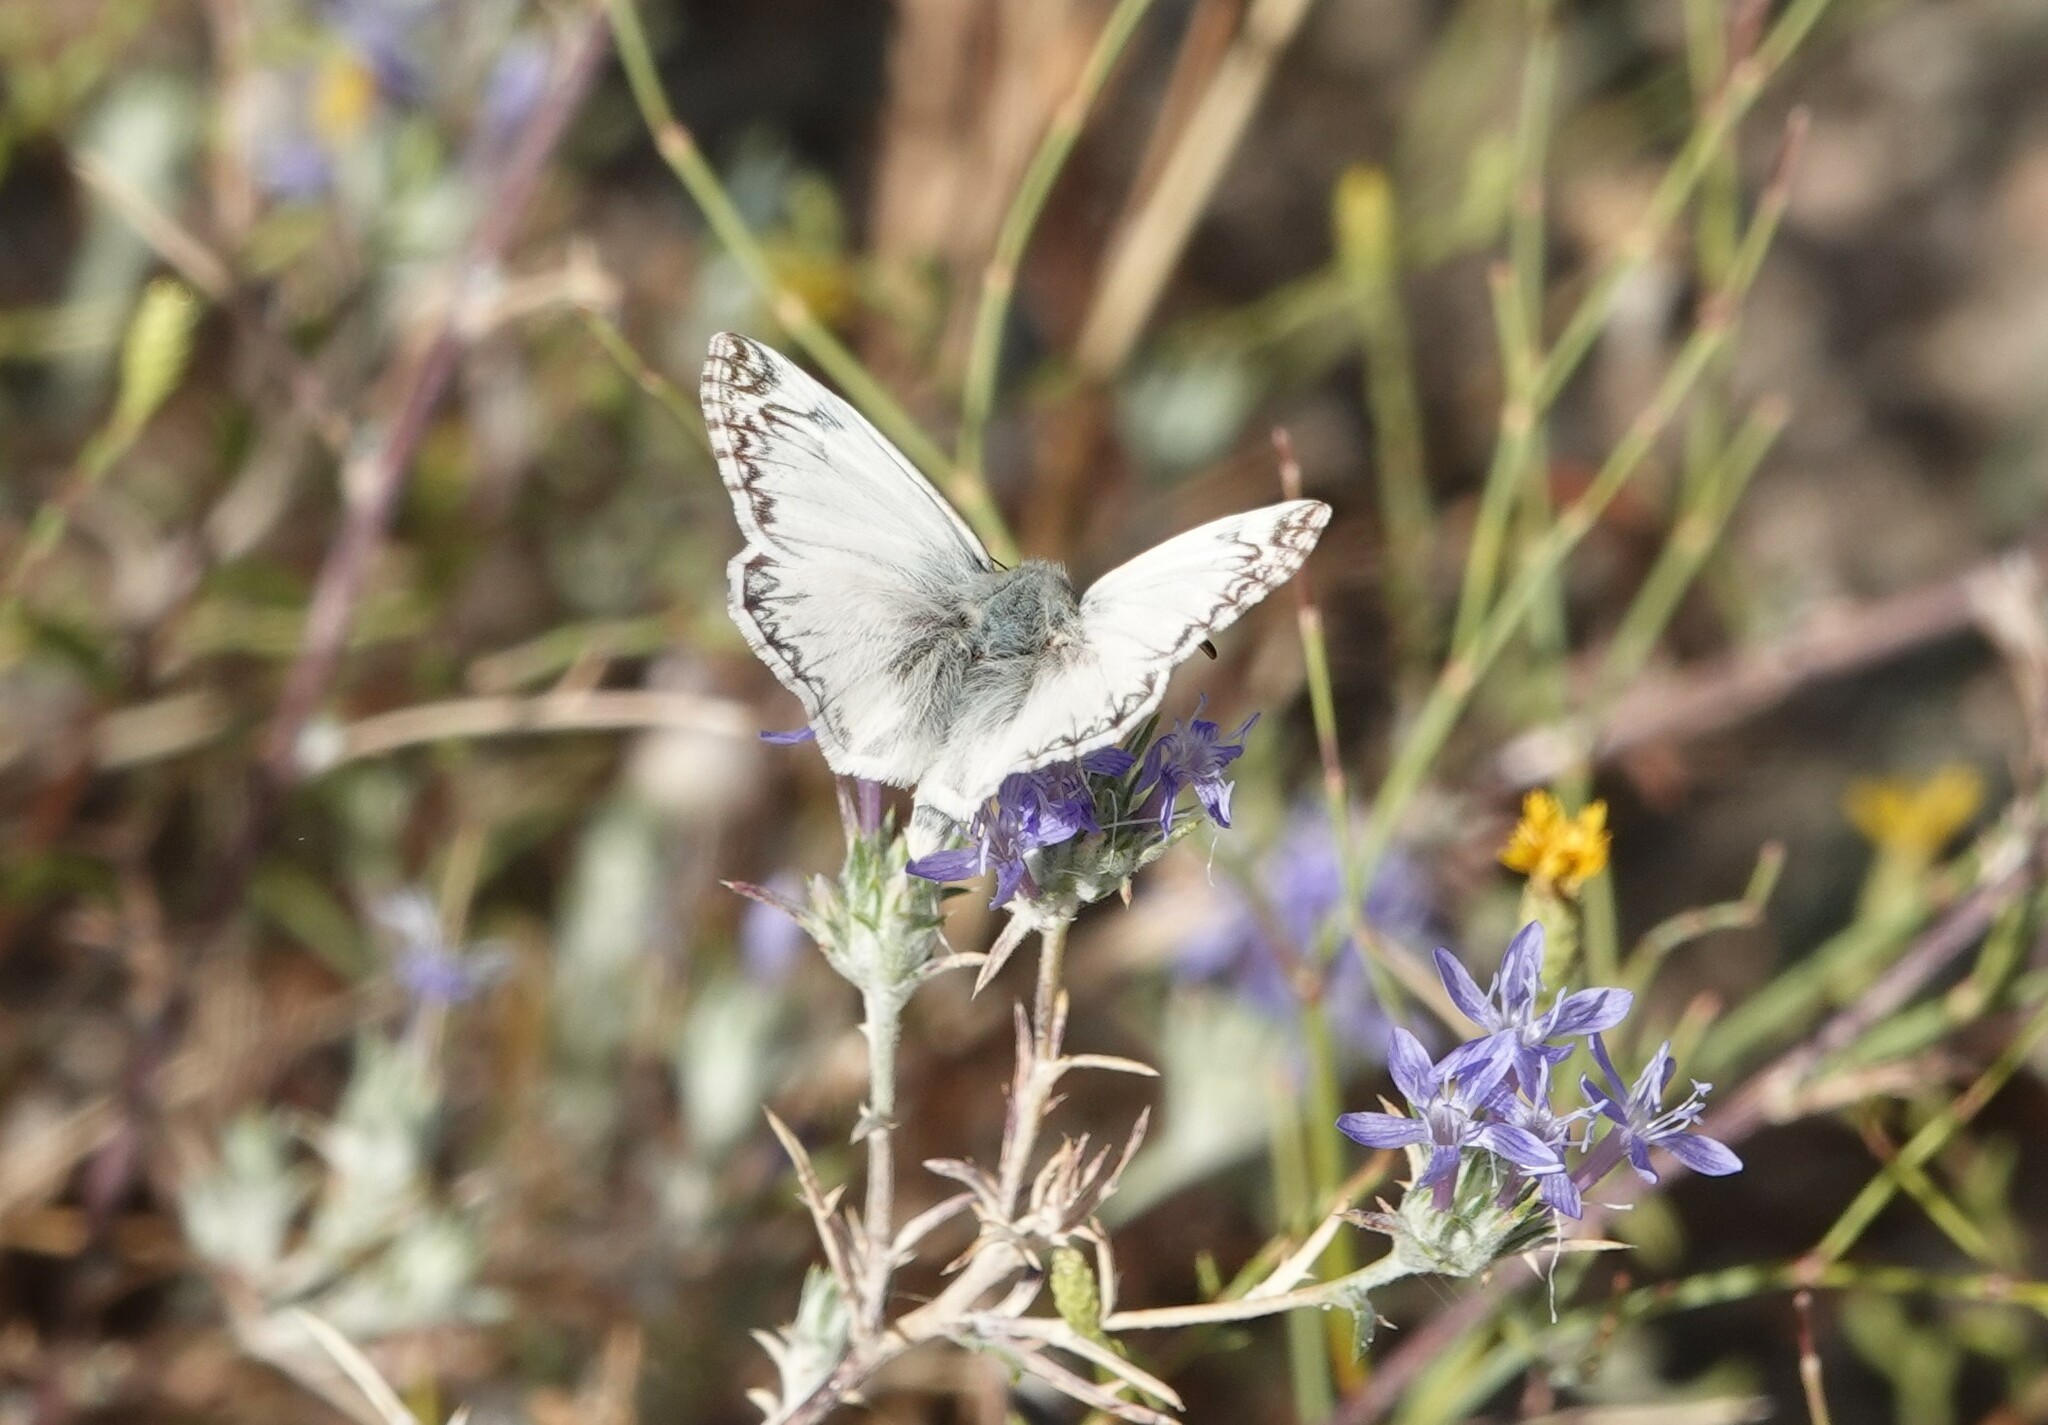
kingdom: Animalia
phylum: Arthropoda
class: Insecta
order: Lepidoptera
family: Hesperiidae
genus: Heliopetes
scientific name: Heliopetes ericetorum
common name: Northern white-skipper
